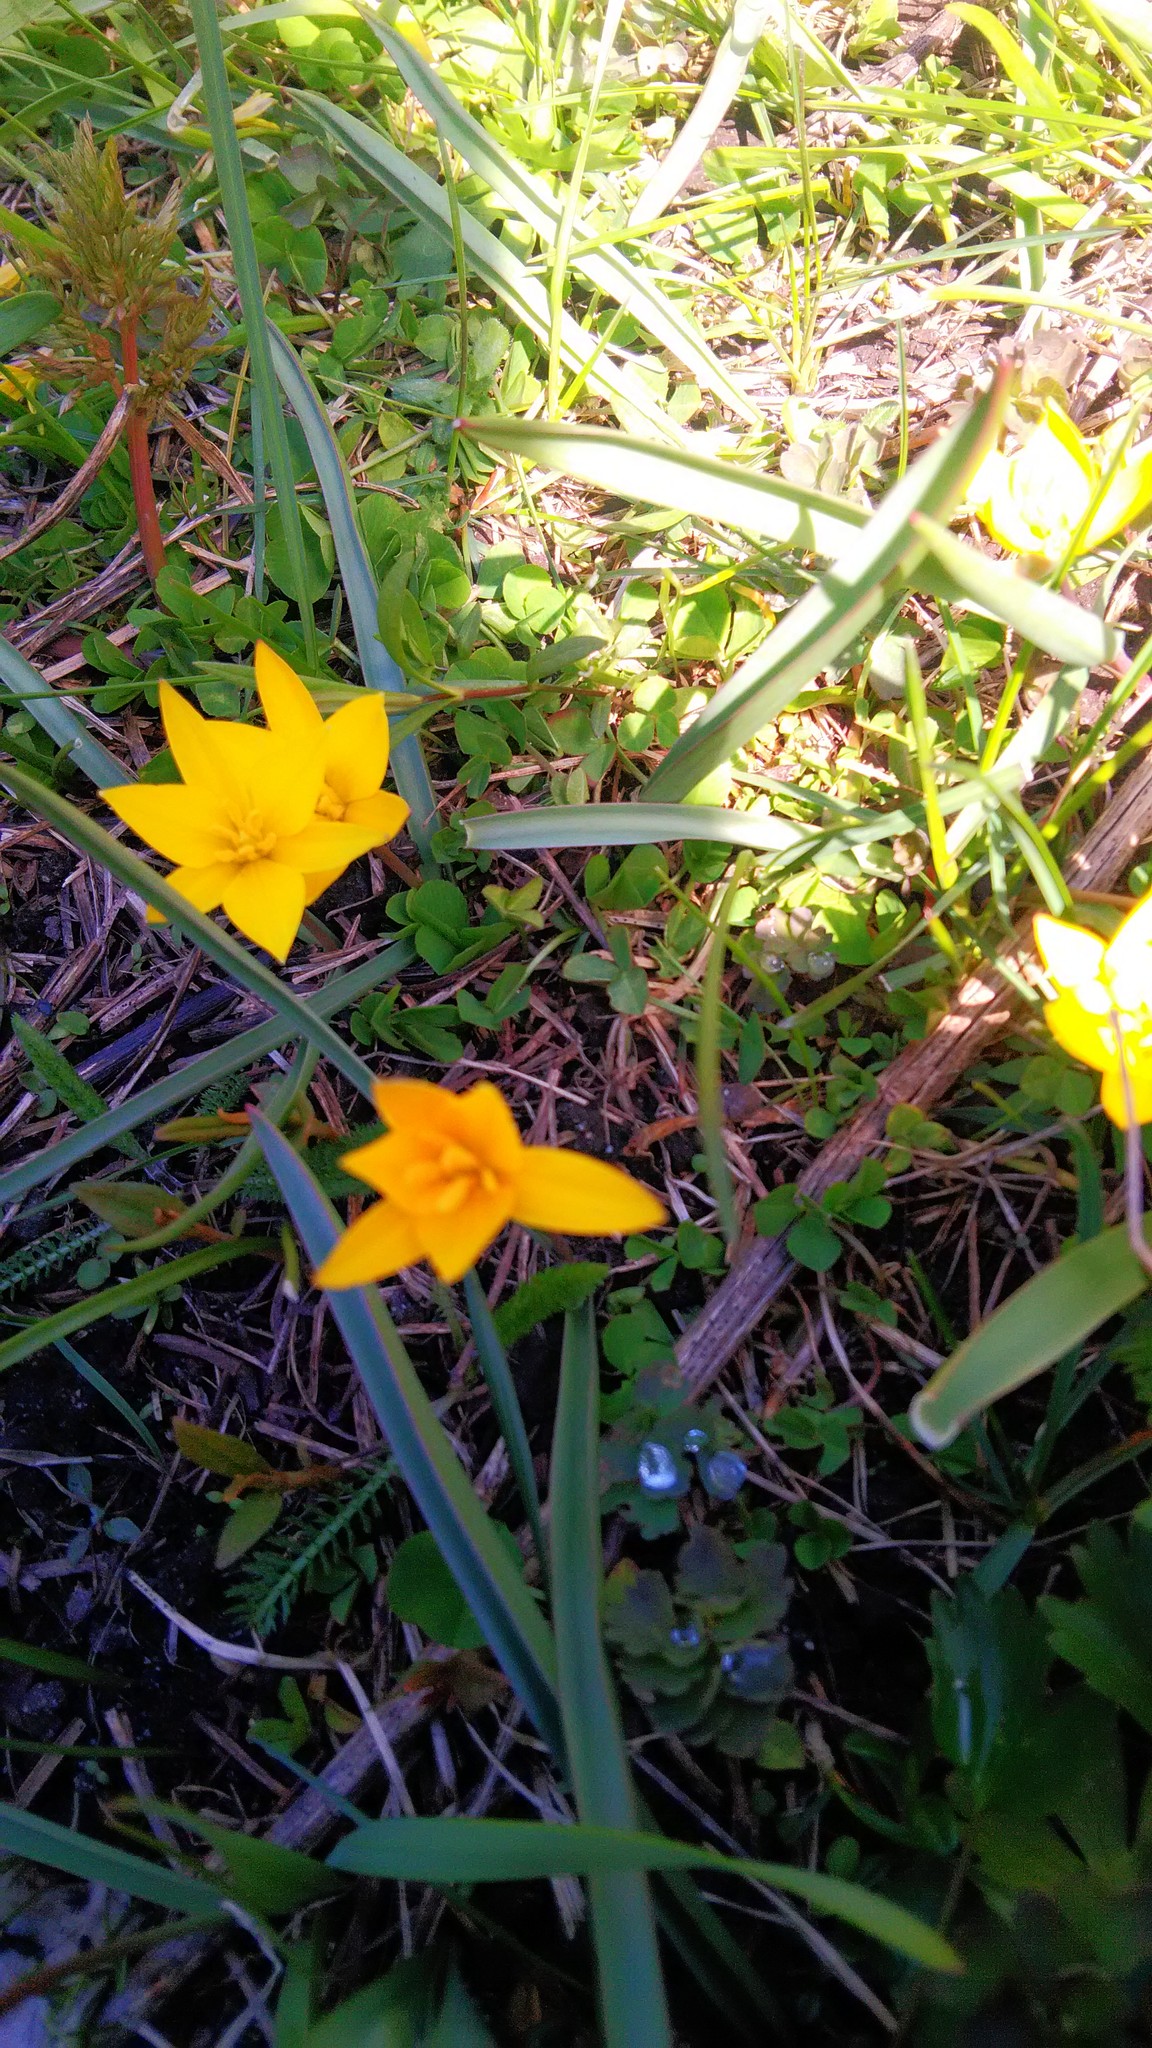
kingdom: Plantae
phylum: Tracheophyta
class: Liliopsida
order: Liliales
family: Liliaceae
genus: Tulipa
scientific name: Tulipa dasystemon
